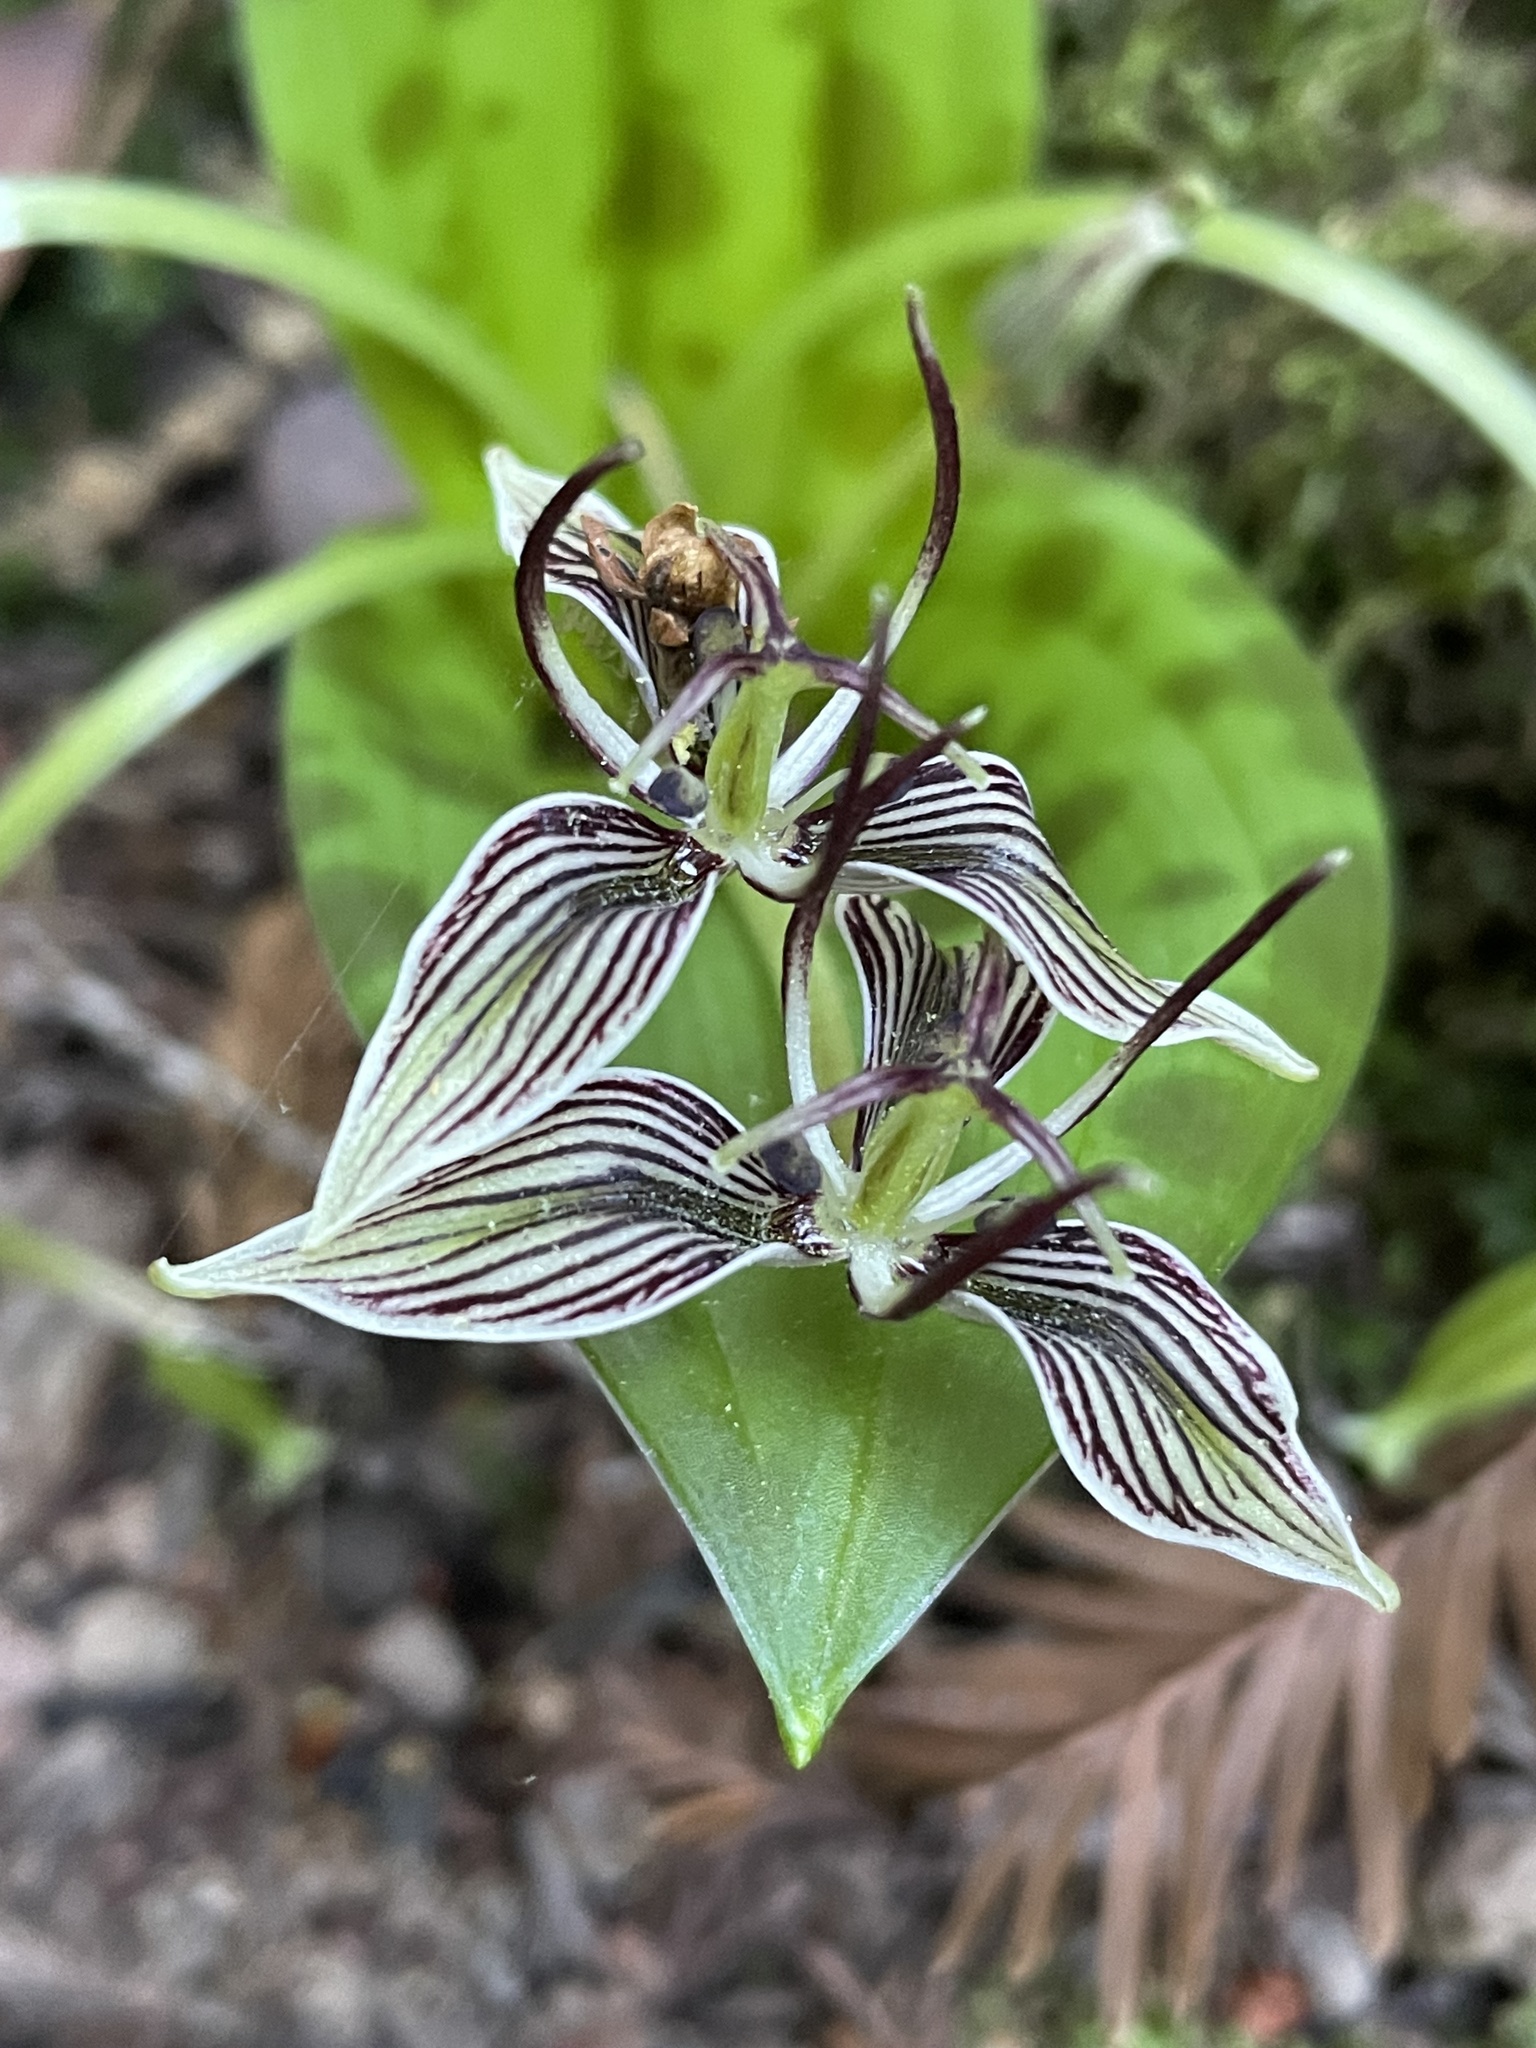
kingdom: Plantae
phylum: Tracheophyta
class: Liliopsida
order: Liliales
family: Liliaceae
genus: Scoliopus
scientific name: Scoliopus bigelovii
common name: Foetid adder's-tongue
